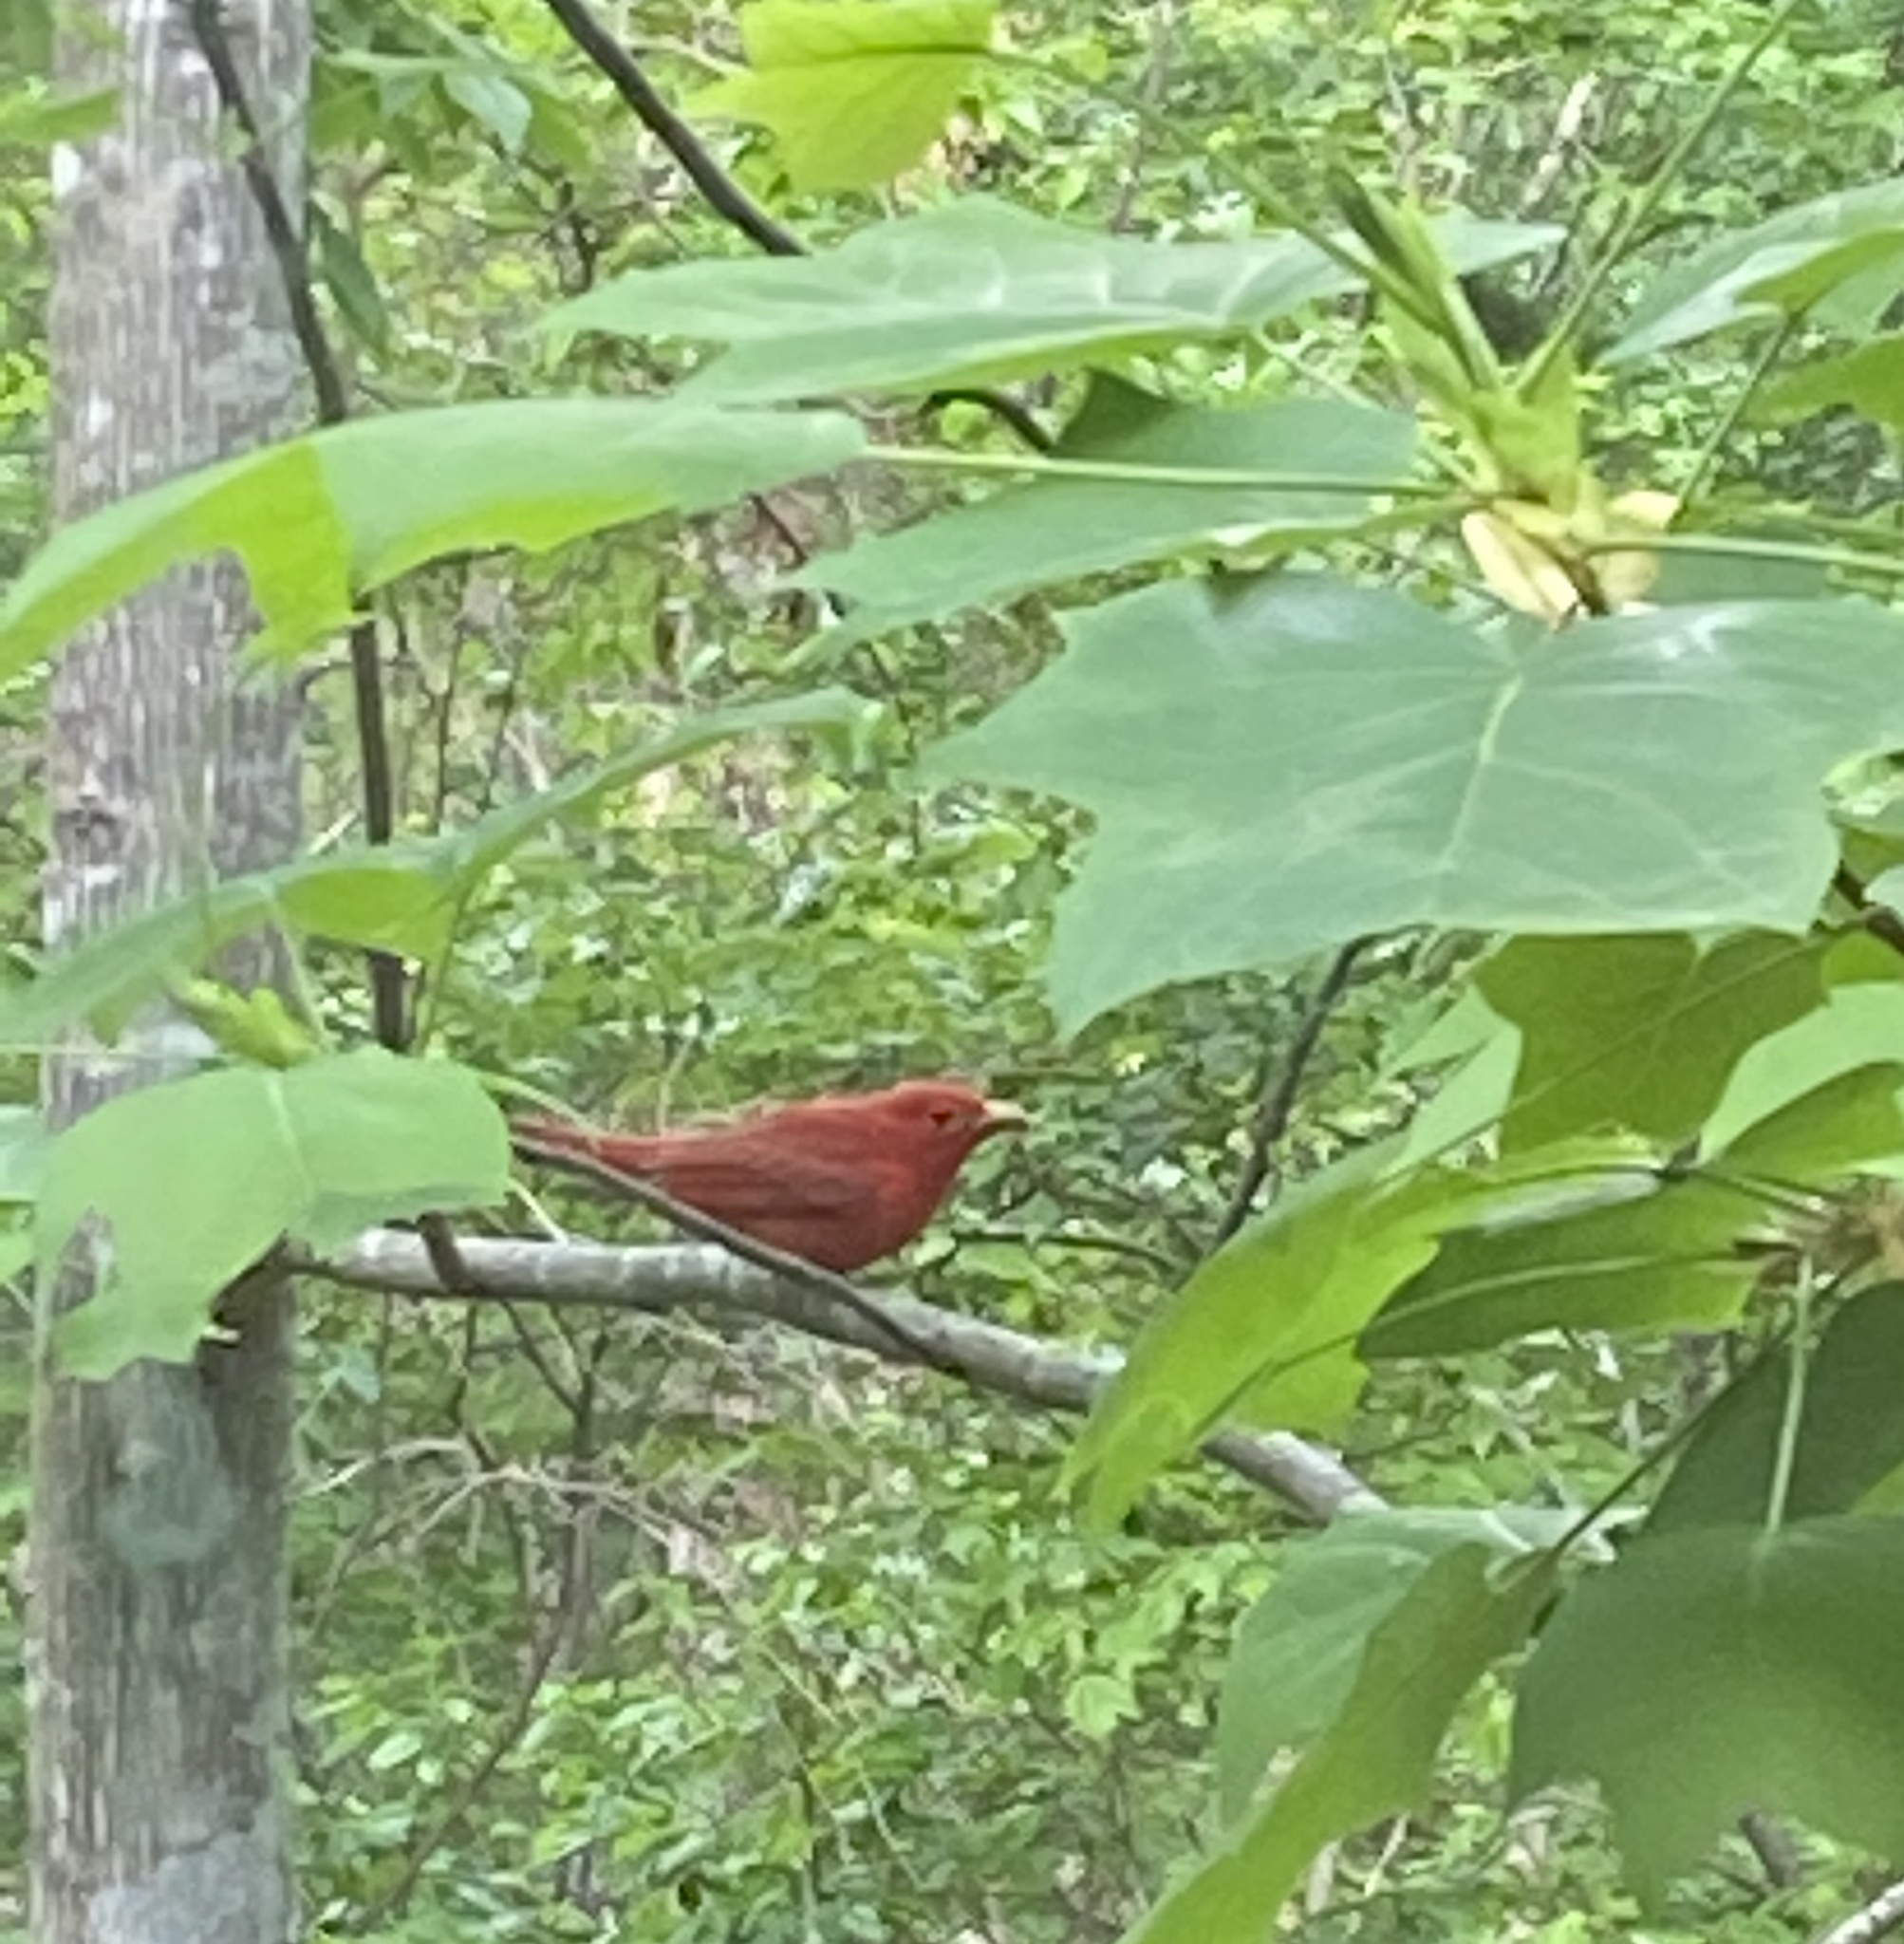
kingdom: Animalia
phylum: Chordata
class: Aves
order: Passeriformes
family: Cardinalidae
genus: Piranga
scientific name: Piranga rubra
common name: Summer tanager
